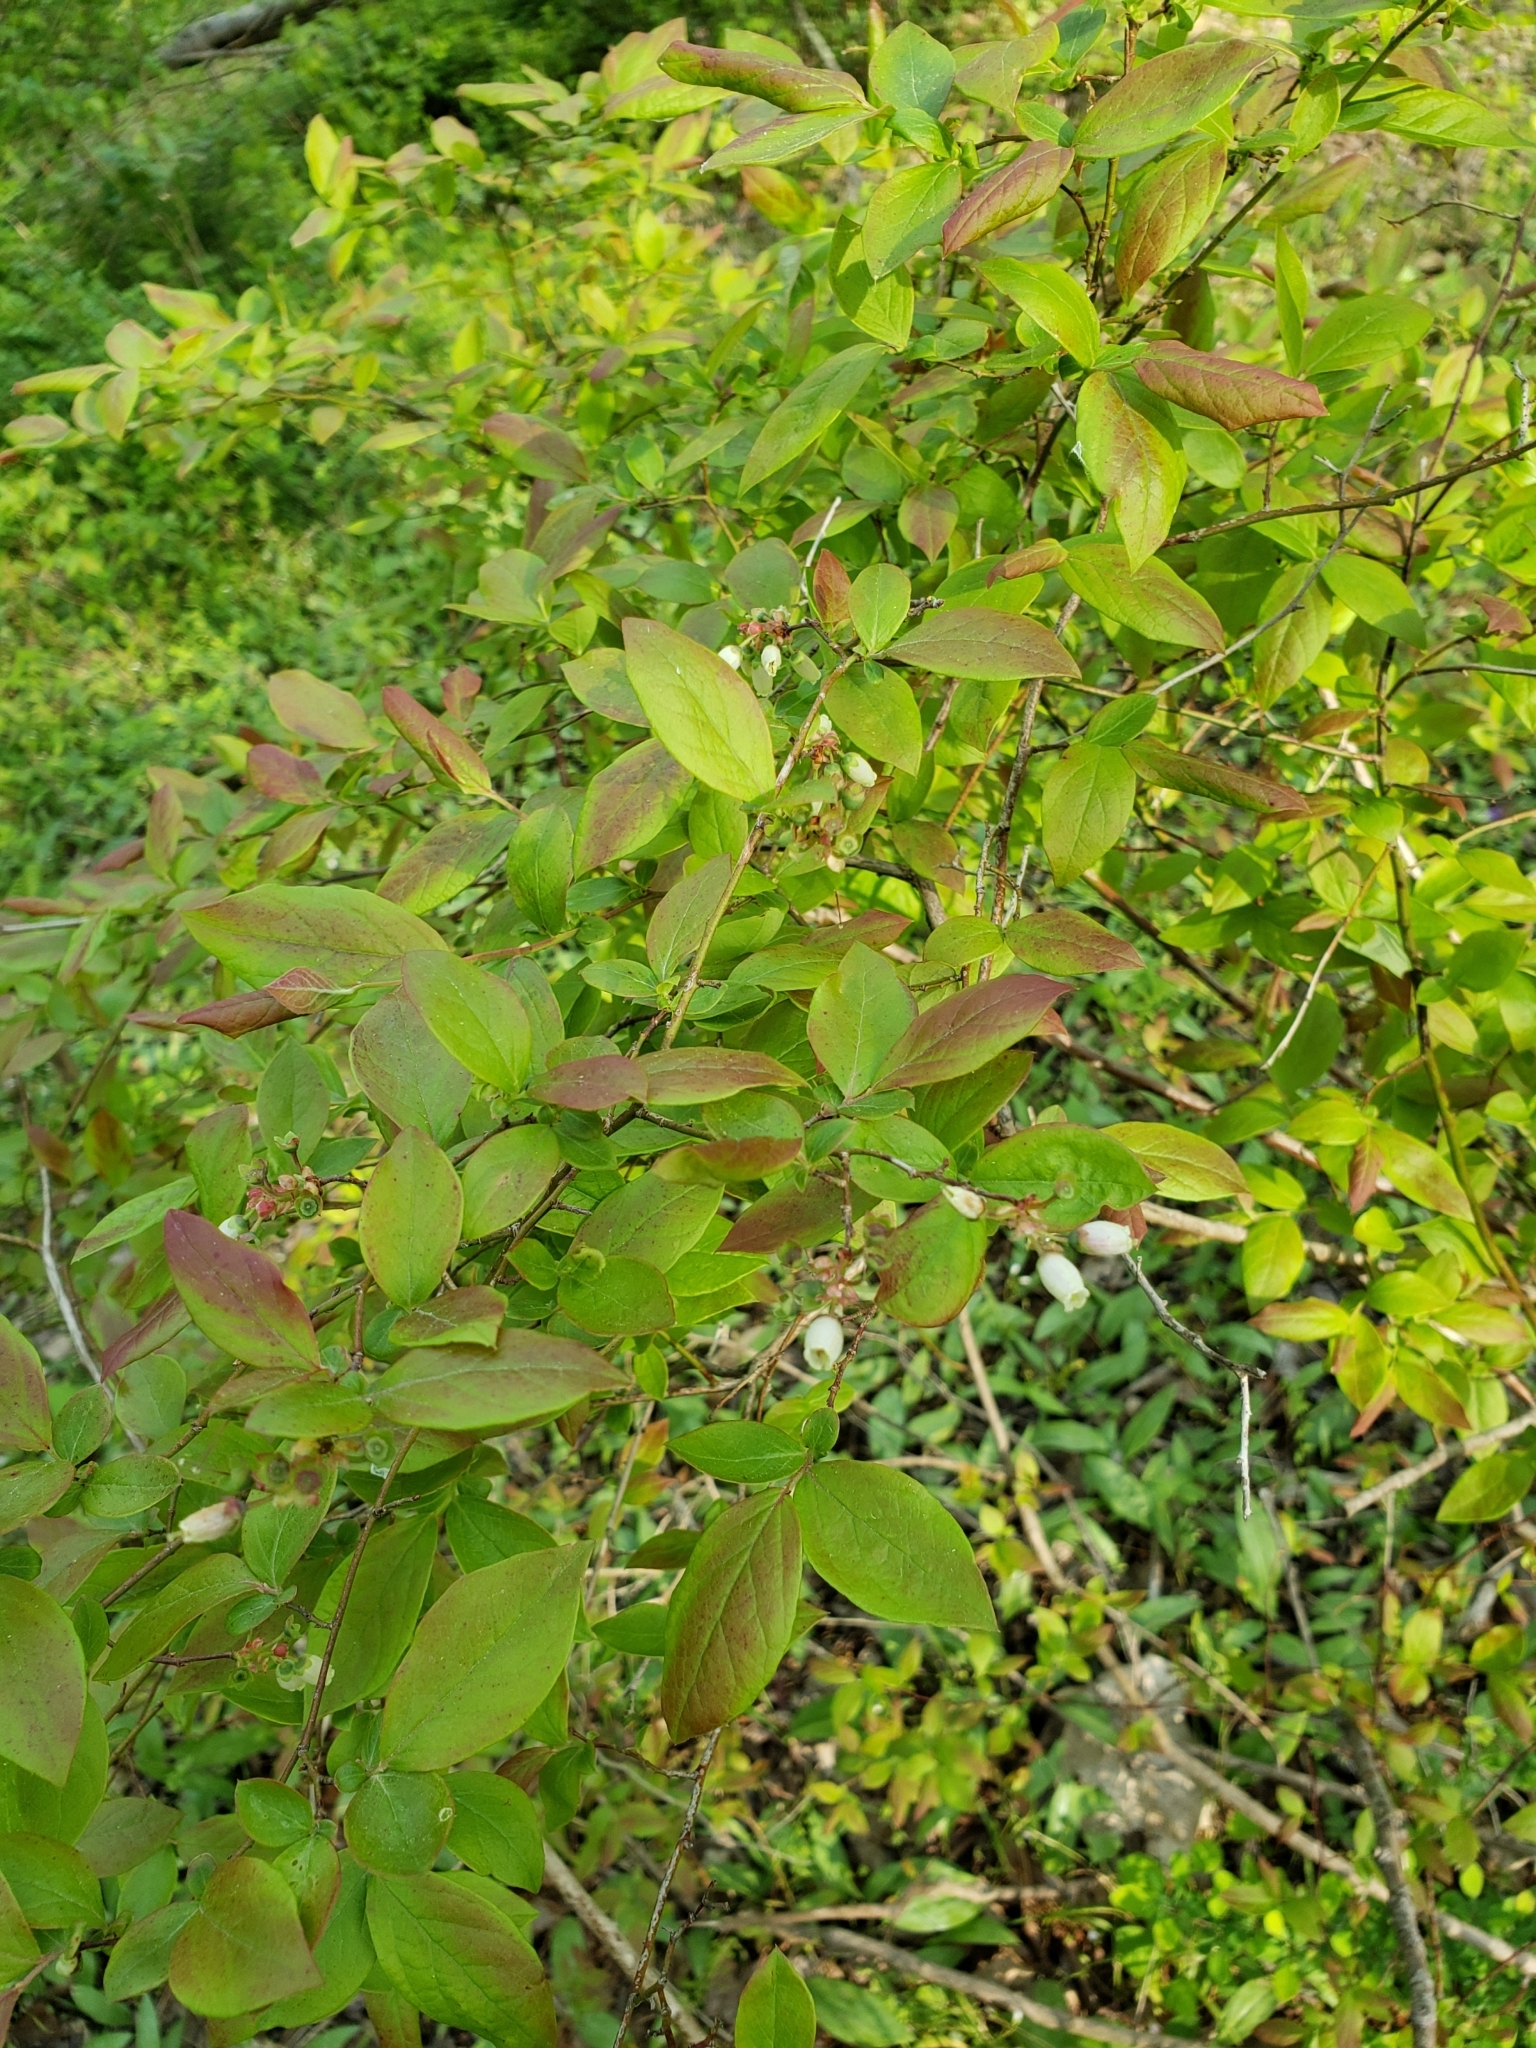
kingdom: Plantae
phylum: Tracheophyta
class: Magnoliopsida
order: Ericales
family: Ericaceae
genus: Vaccinium
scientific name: Vaccinium pallidum
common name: Blue ridge blueberry
